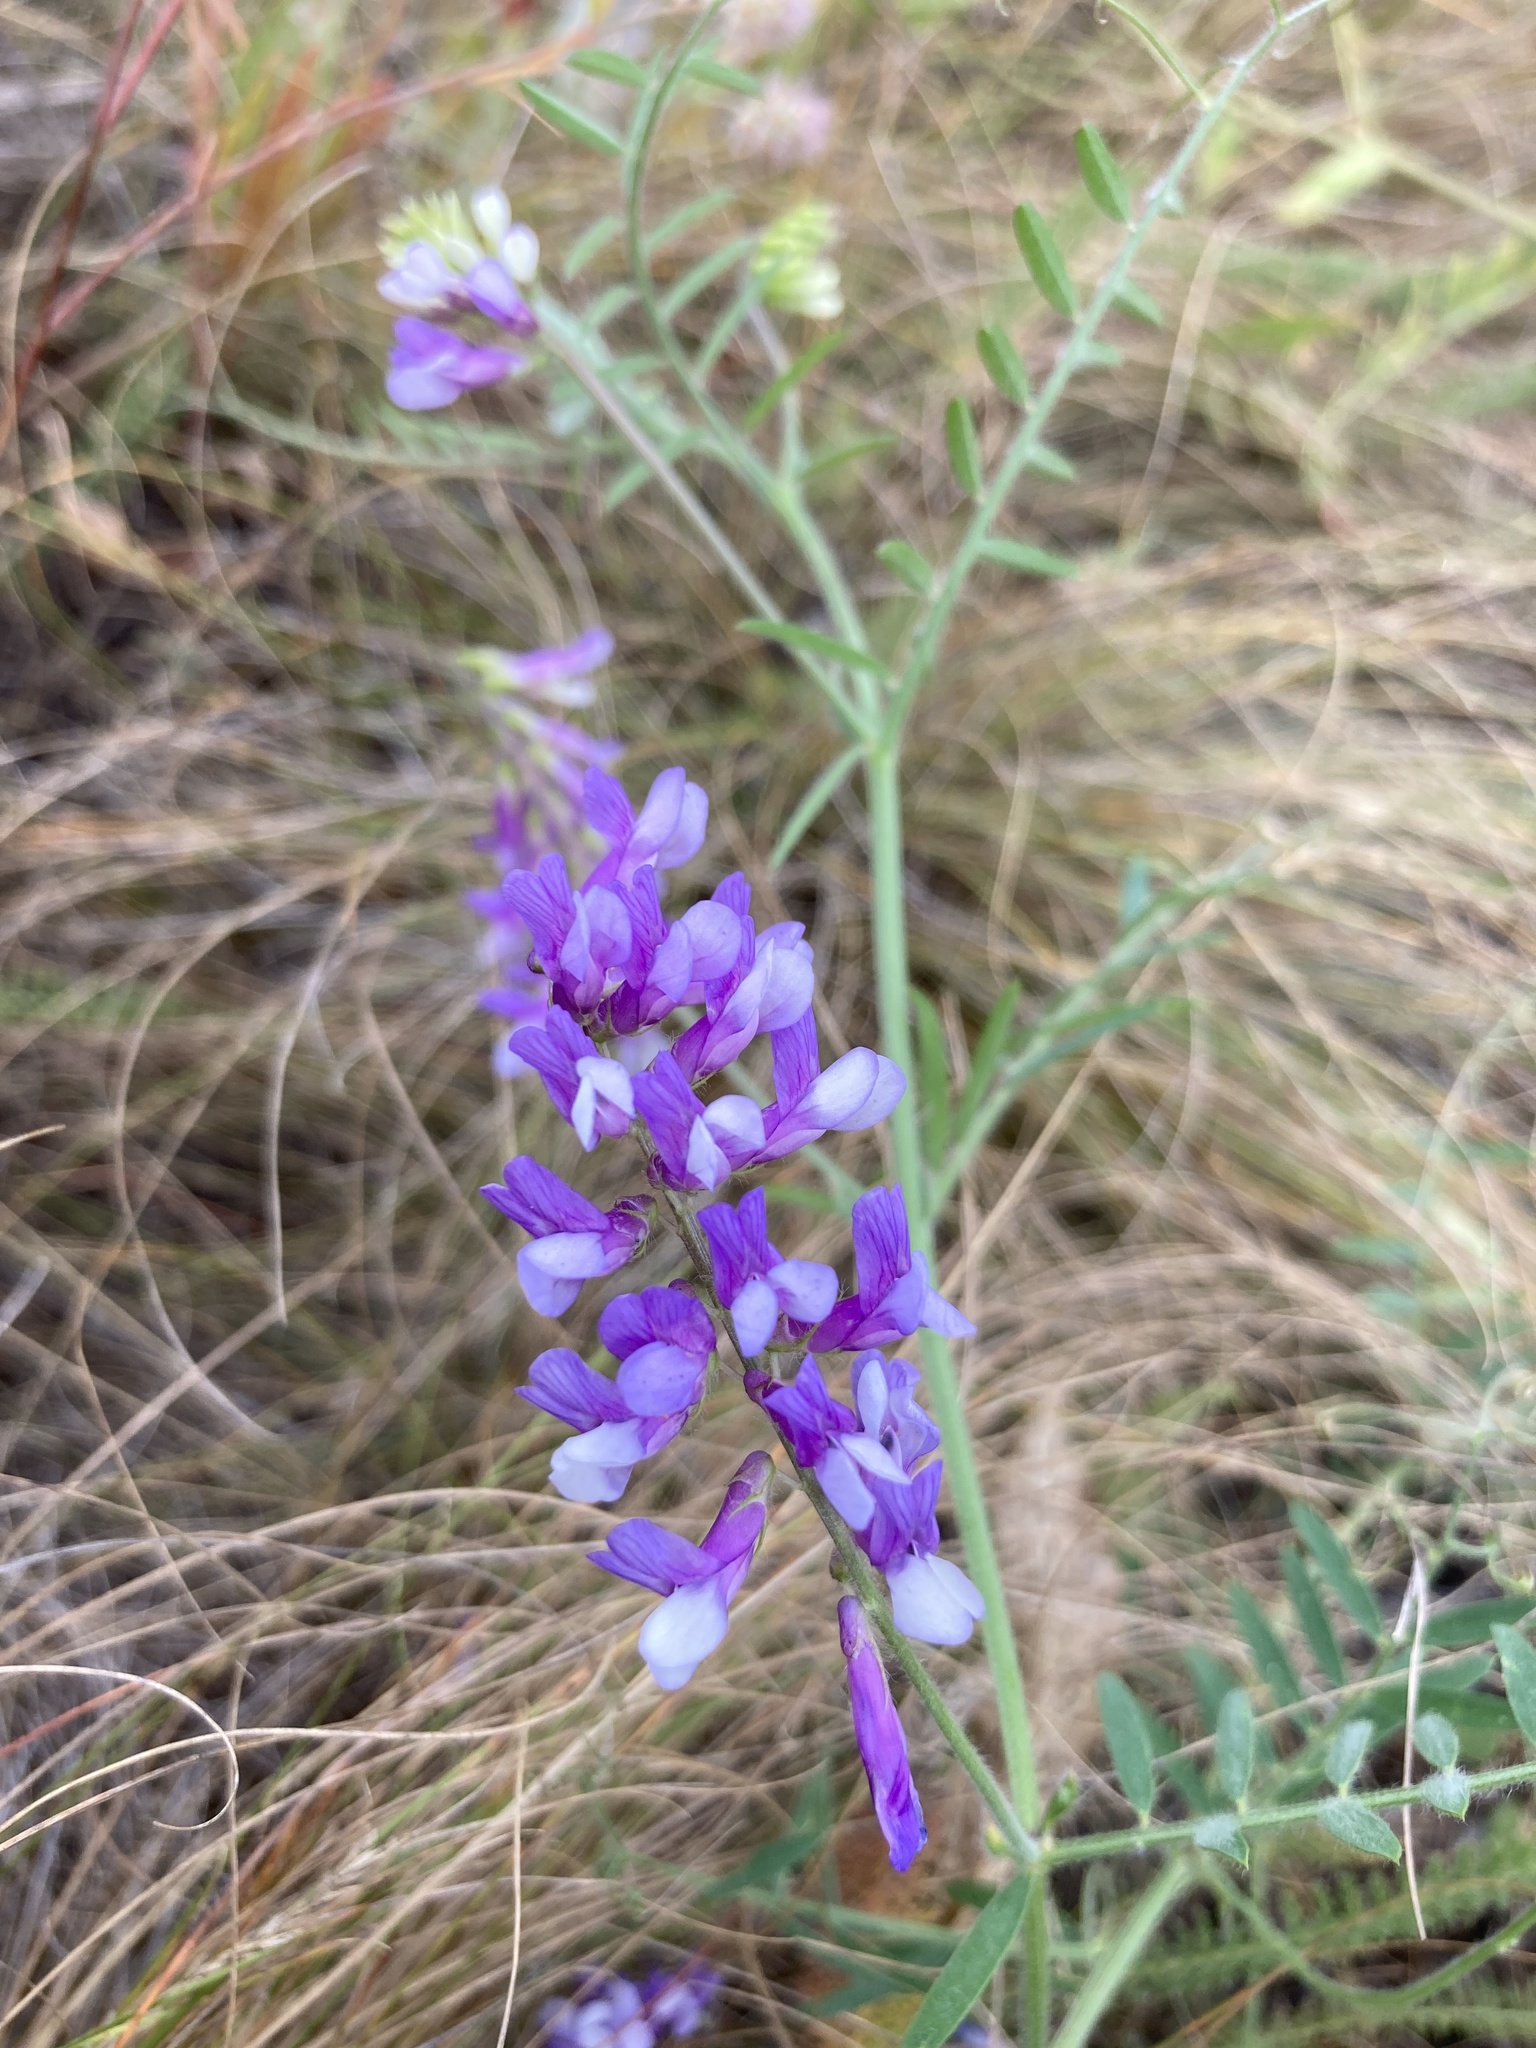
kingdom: Plantae
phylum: Tracheophyta
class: Magnoliopsida
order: Fabales
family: Fabaceae
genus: Vicia
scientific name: Vicia villosa
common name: Fodder vetch
